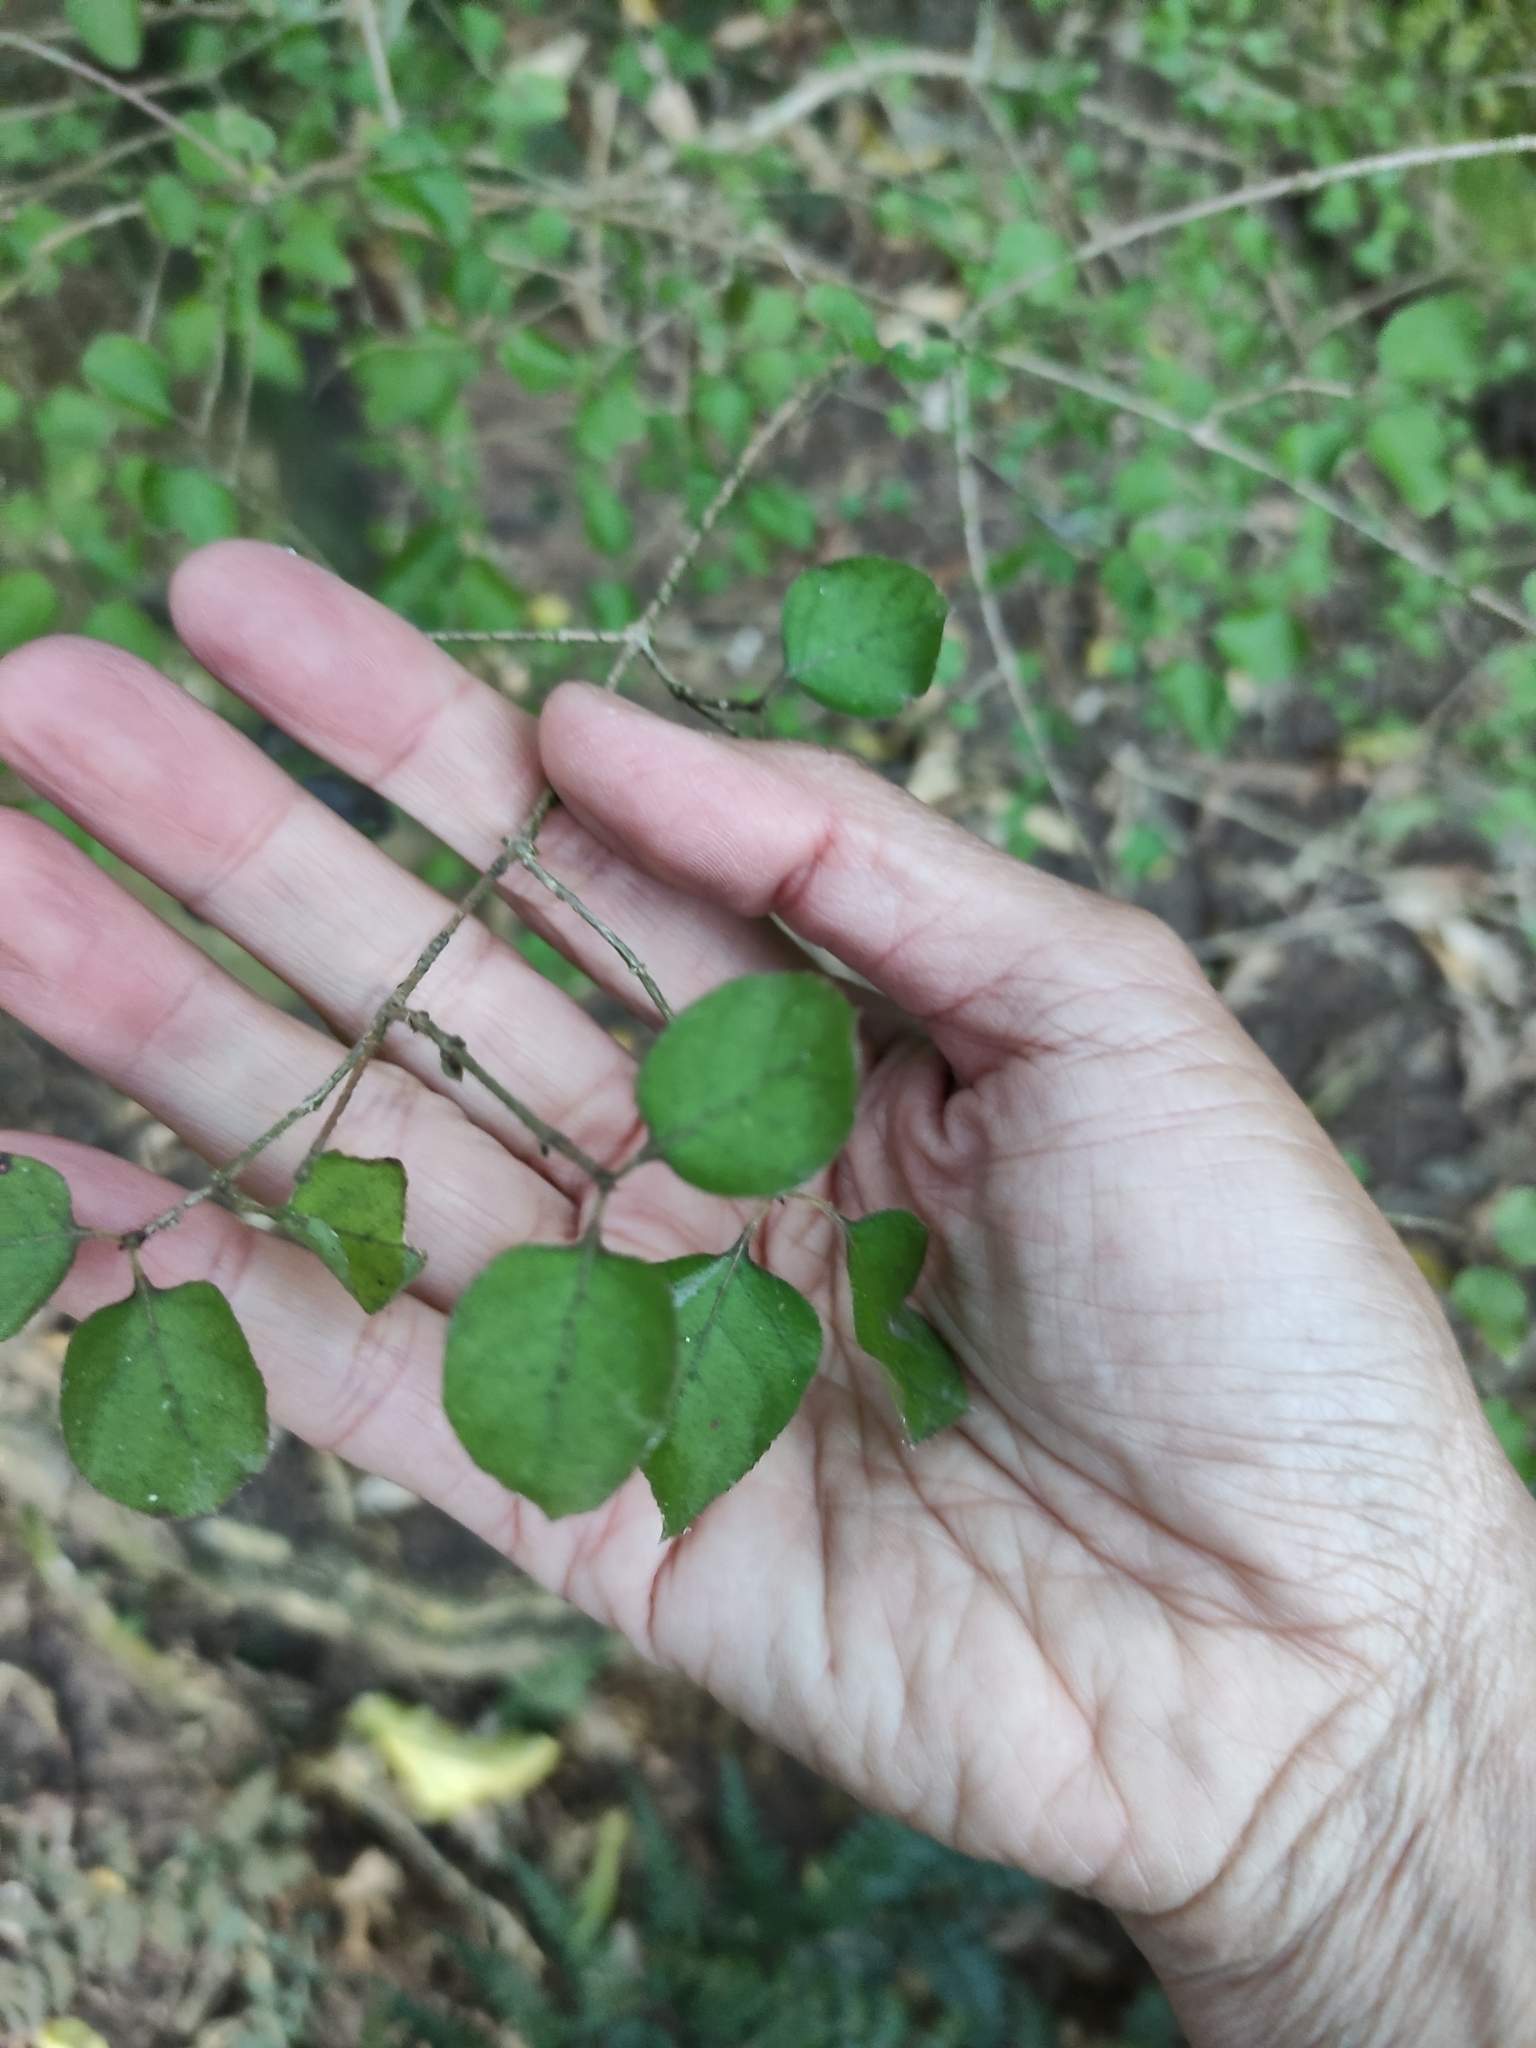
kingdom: Plantae
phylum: Tracheophyta
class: Magnoliopsida
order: Gentianales
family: Rubiaceae
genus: Coprosma
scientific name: Coprosma rotundifolia
